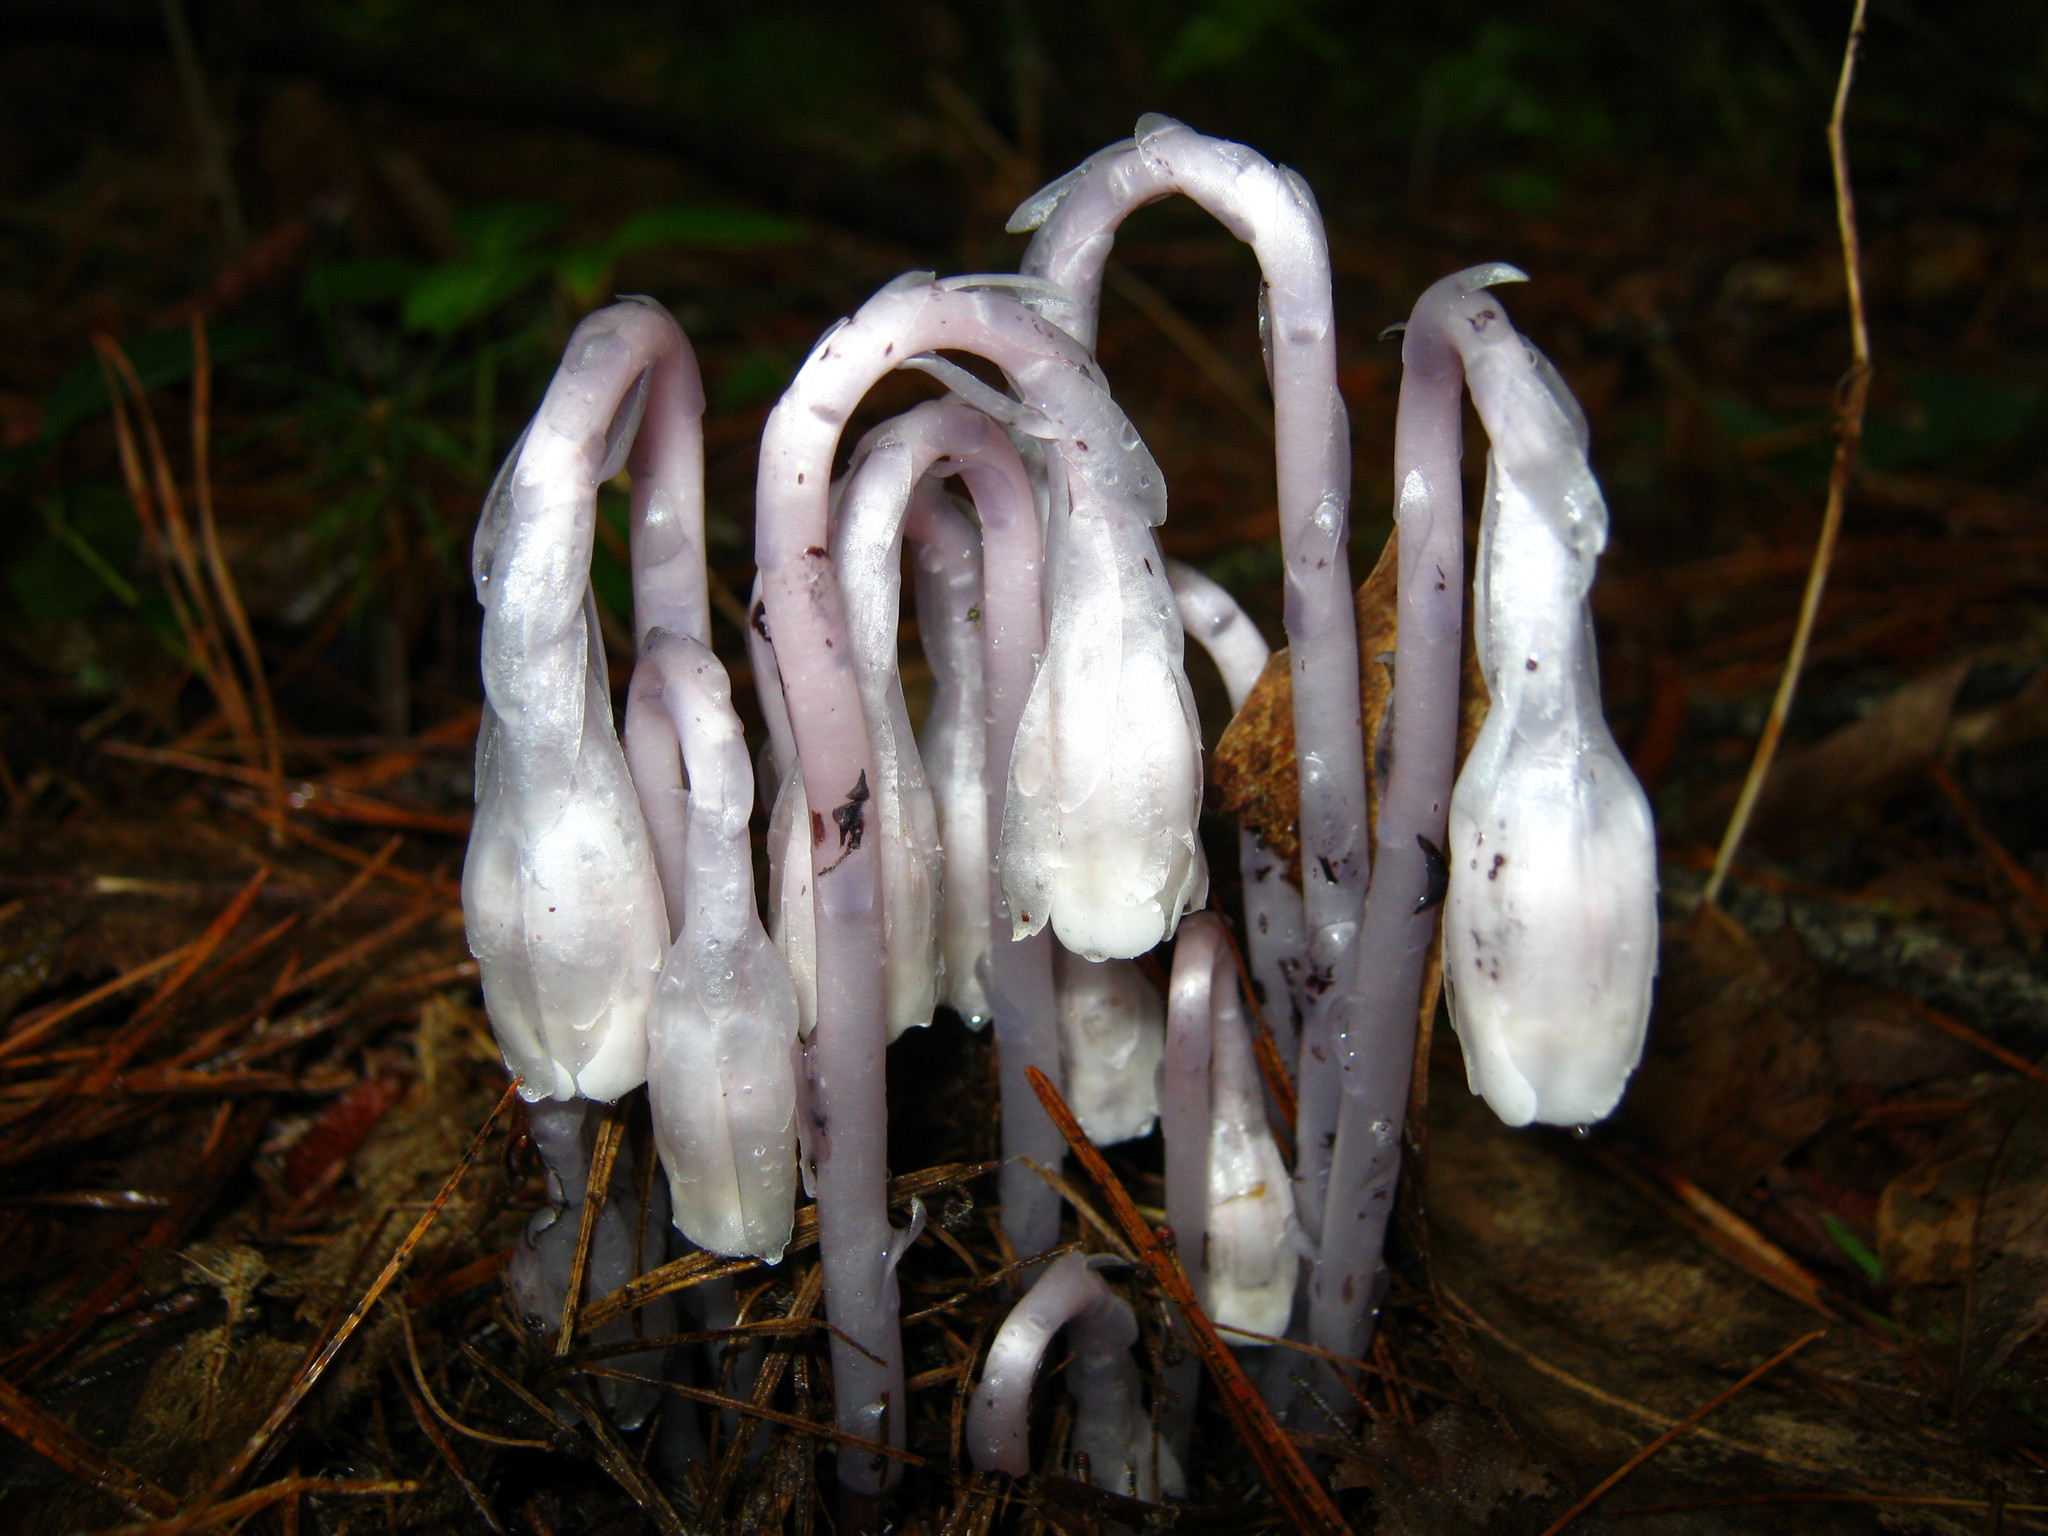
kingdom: Plantae
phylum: Tracheophyta
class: Magnoliopsida
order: Ericales
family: Ericaceae
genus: Monotropa
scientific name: Monotropa uniflora
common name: Convulsion root
